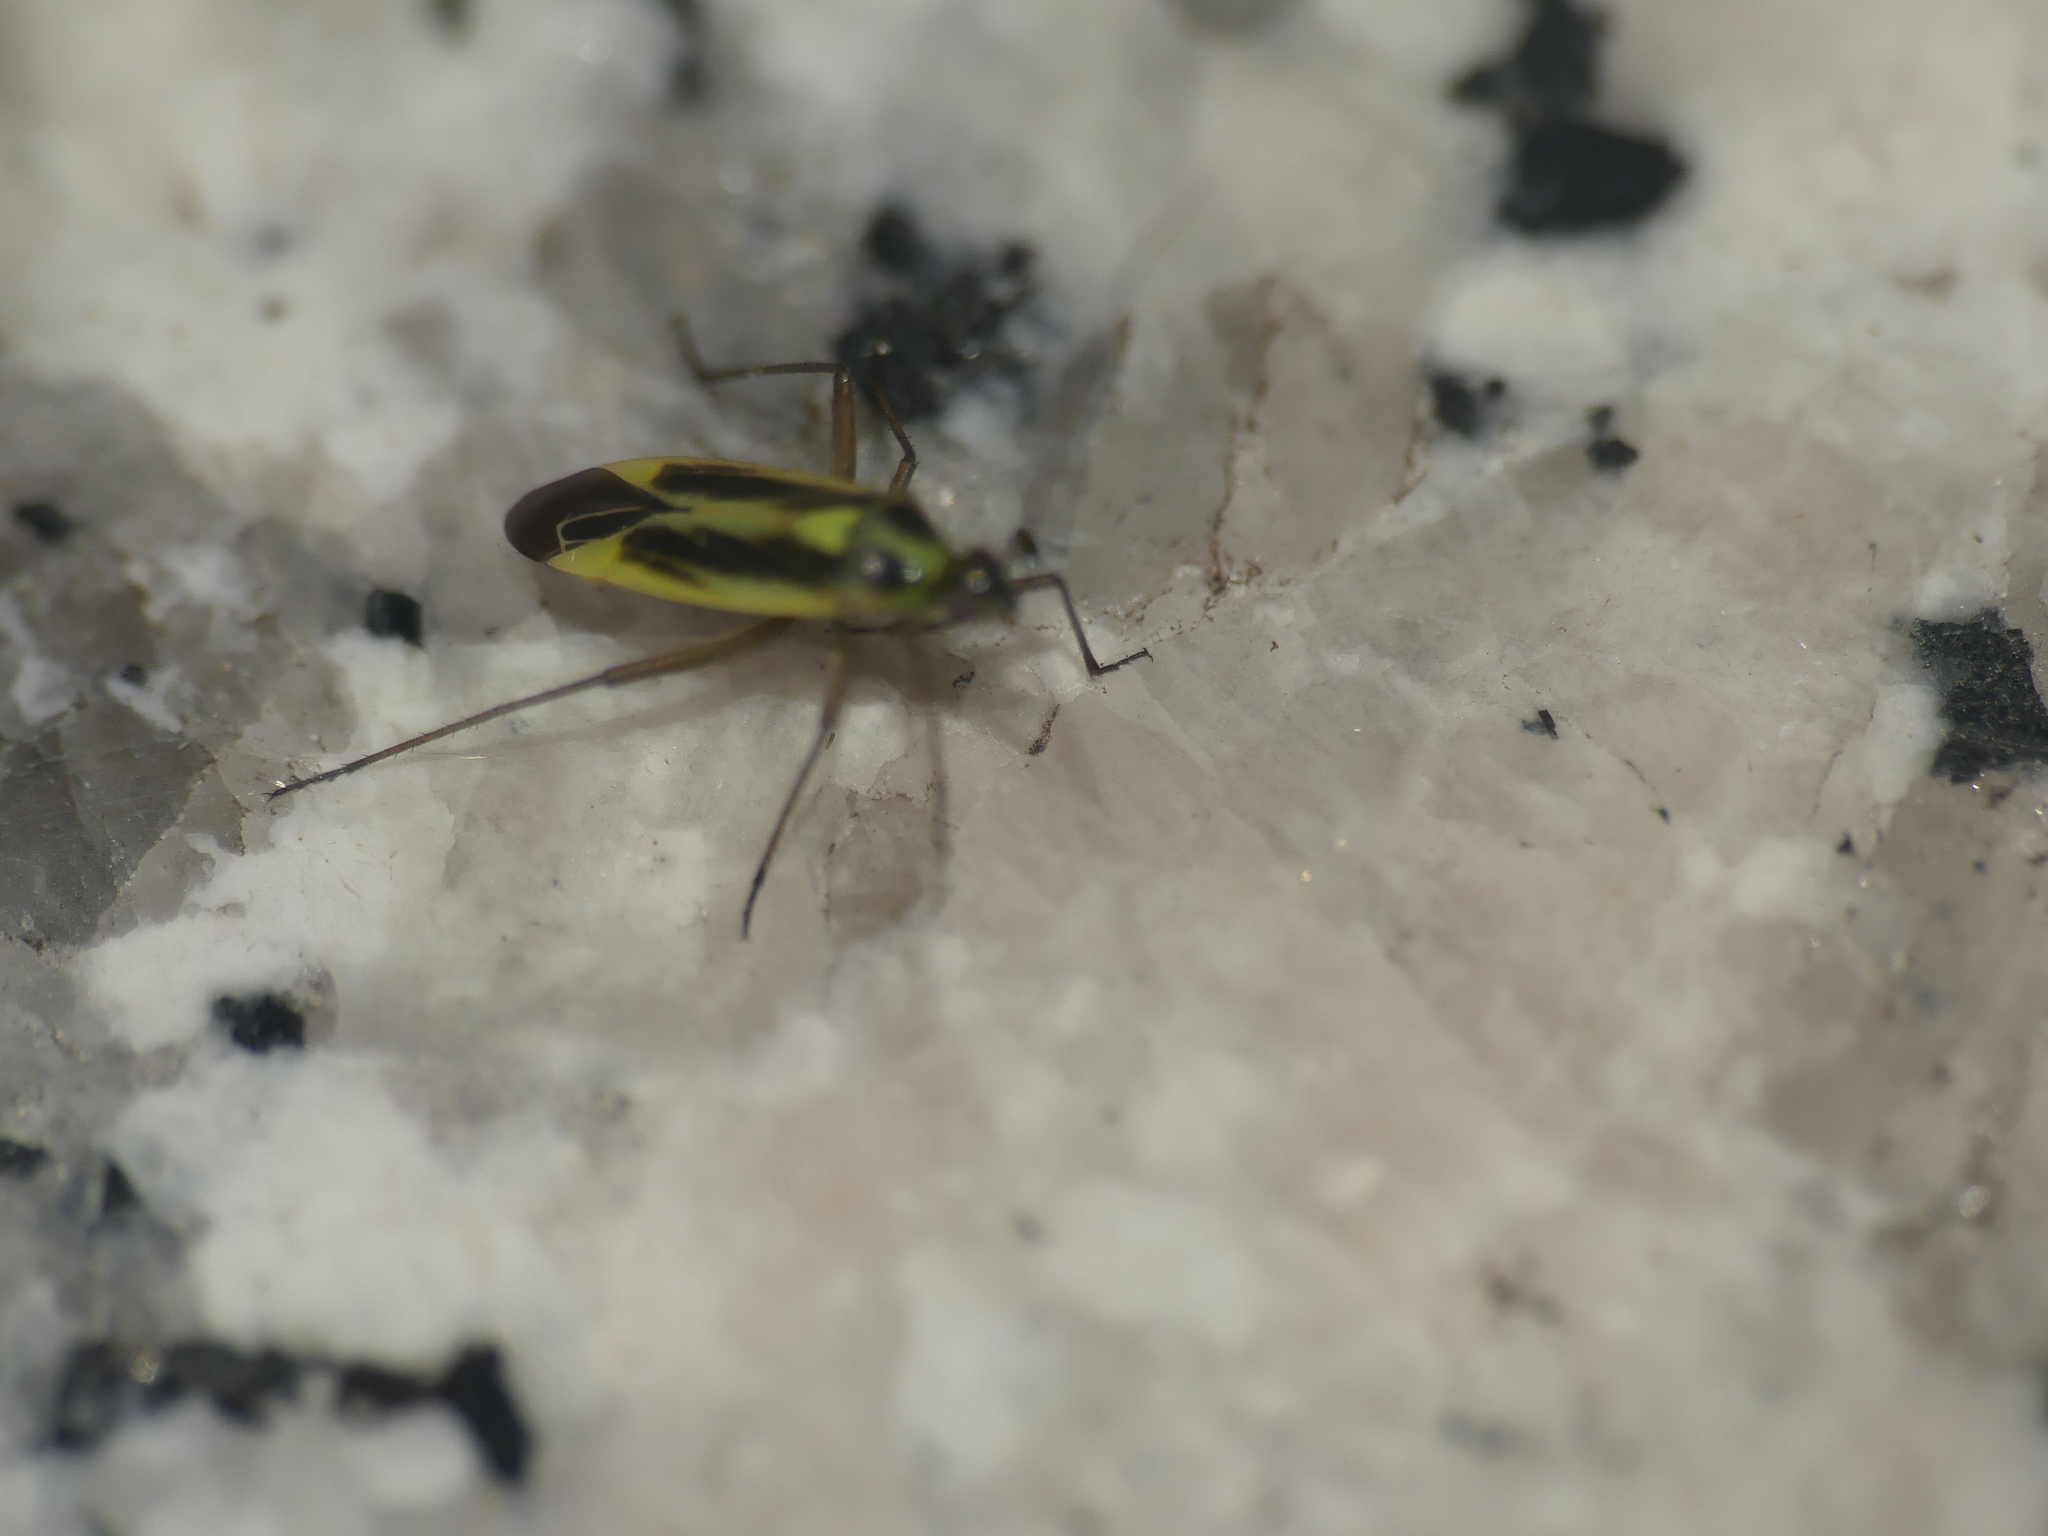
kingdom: Animalia
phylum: Arthropoda
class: Insecta
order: Hemiptera
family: Miridae
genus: Stenotus
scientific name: Stenotus binotatus
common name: Plant bug
